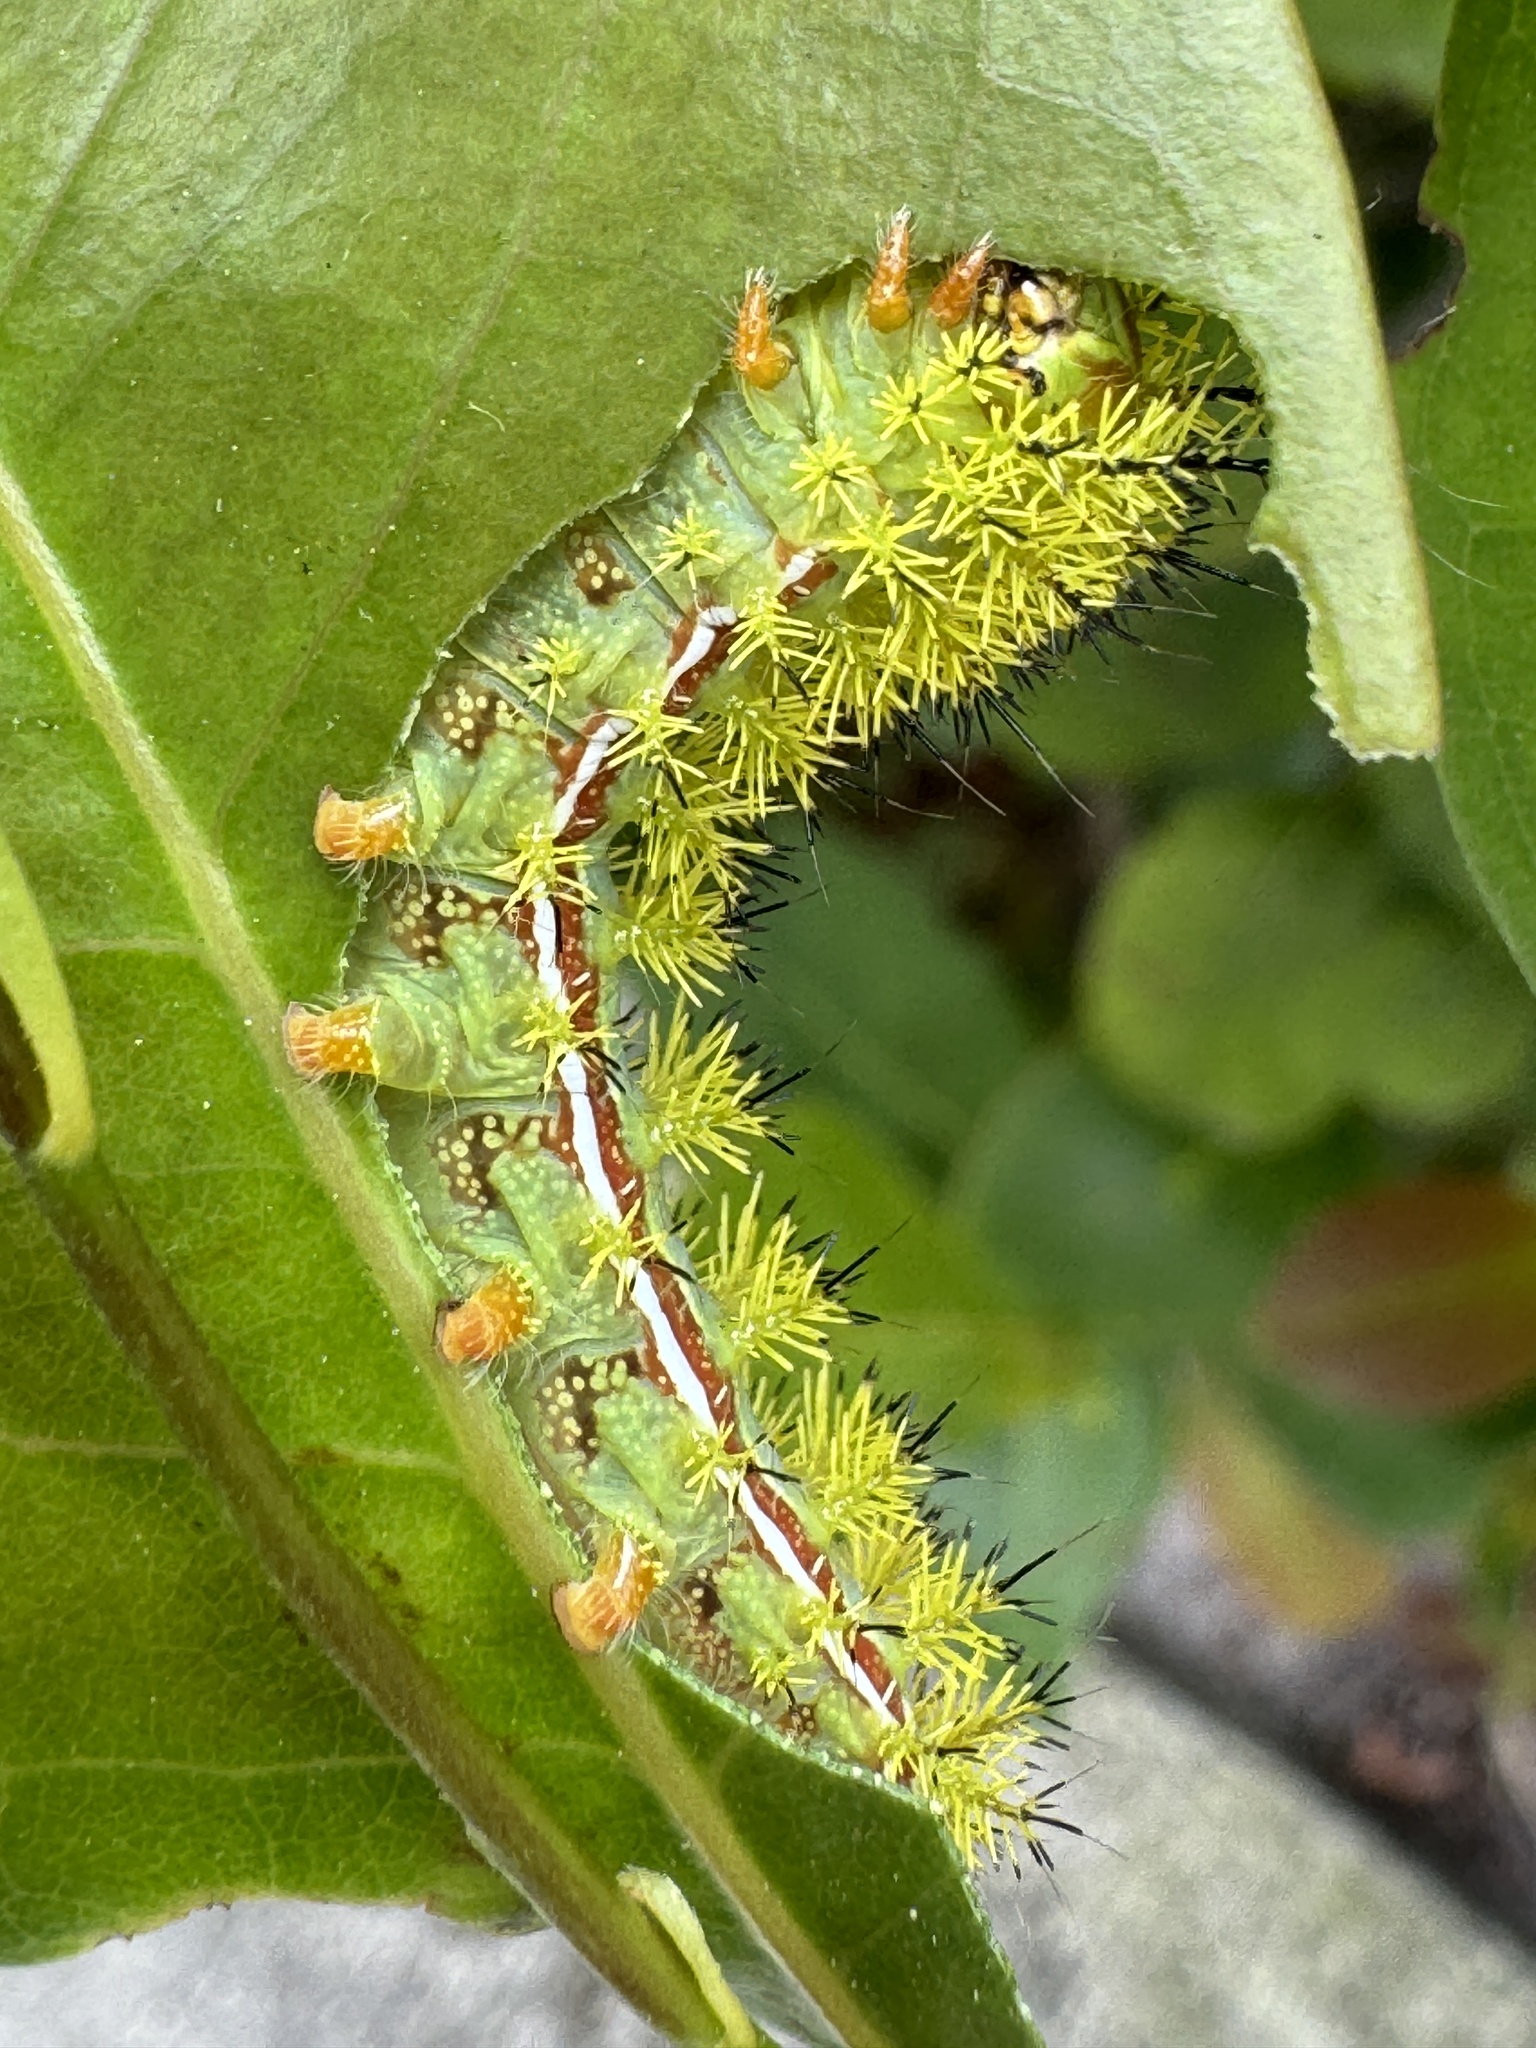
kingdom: Animalia
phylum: Arthropoda
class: Insecta
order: Lepidoptera
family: Saturniidae
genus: Automeris
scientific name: Automeris io
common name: Io moth
